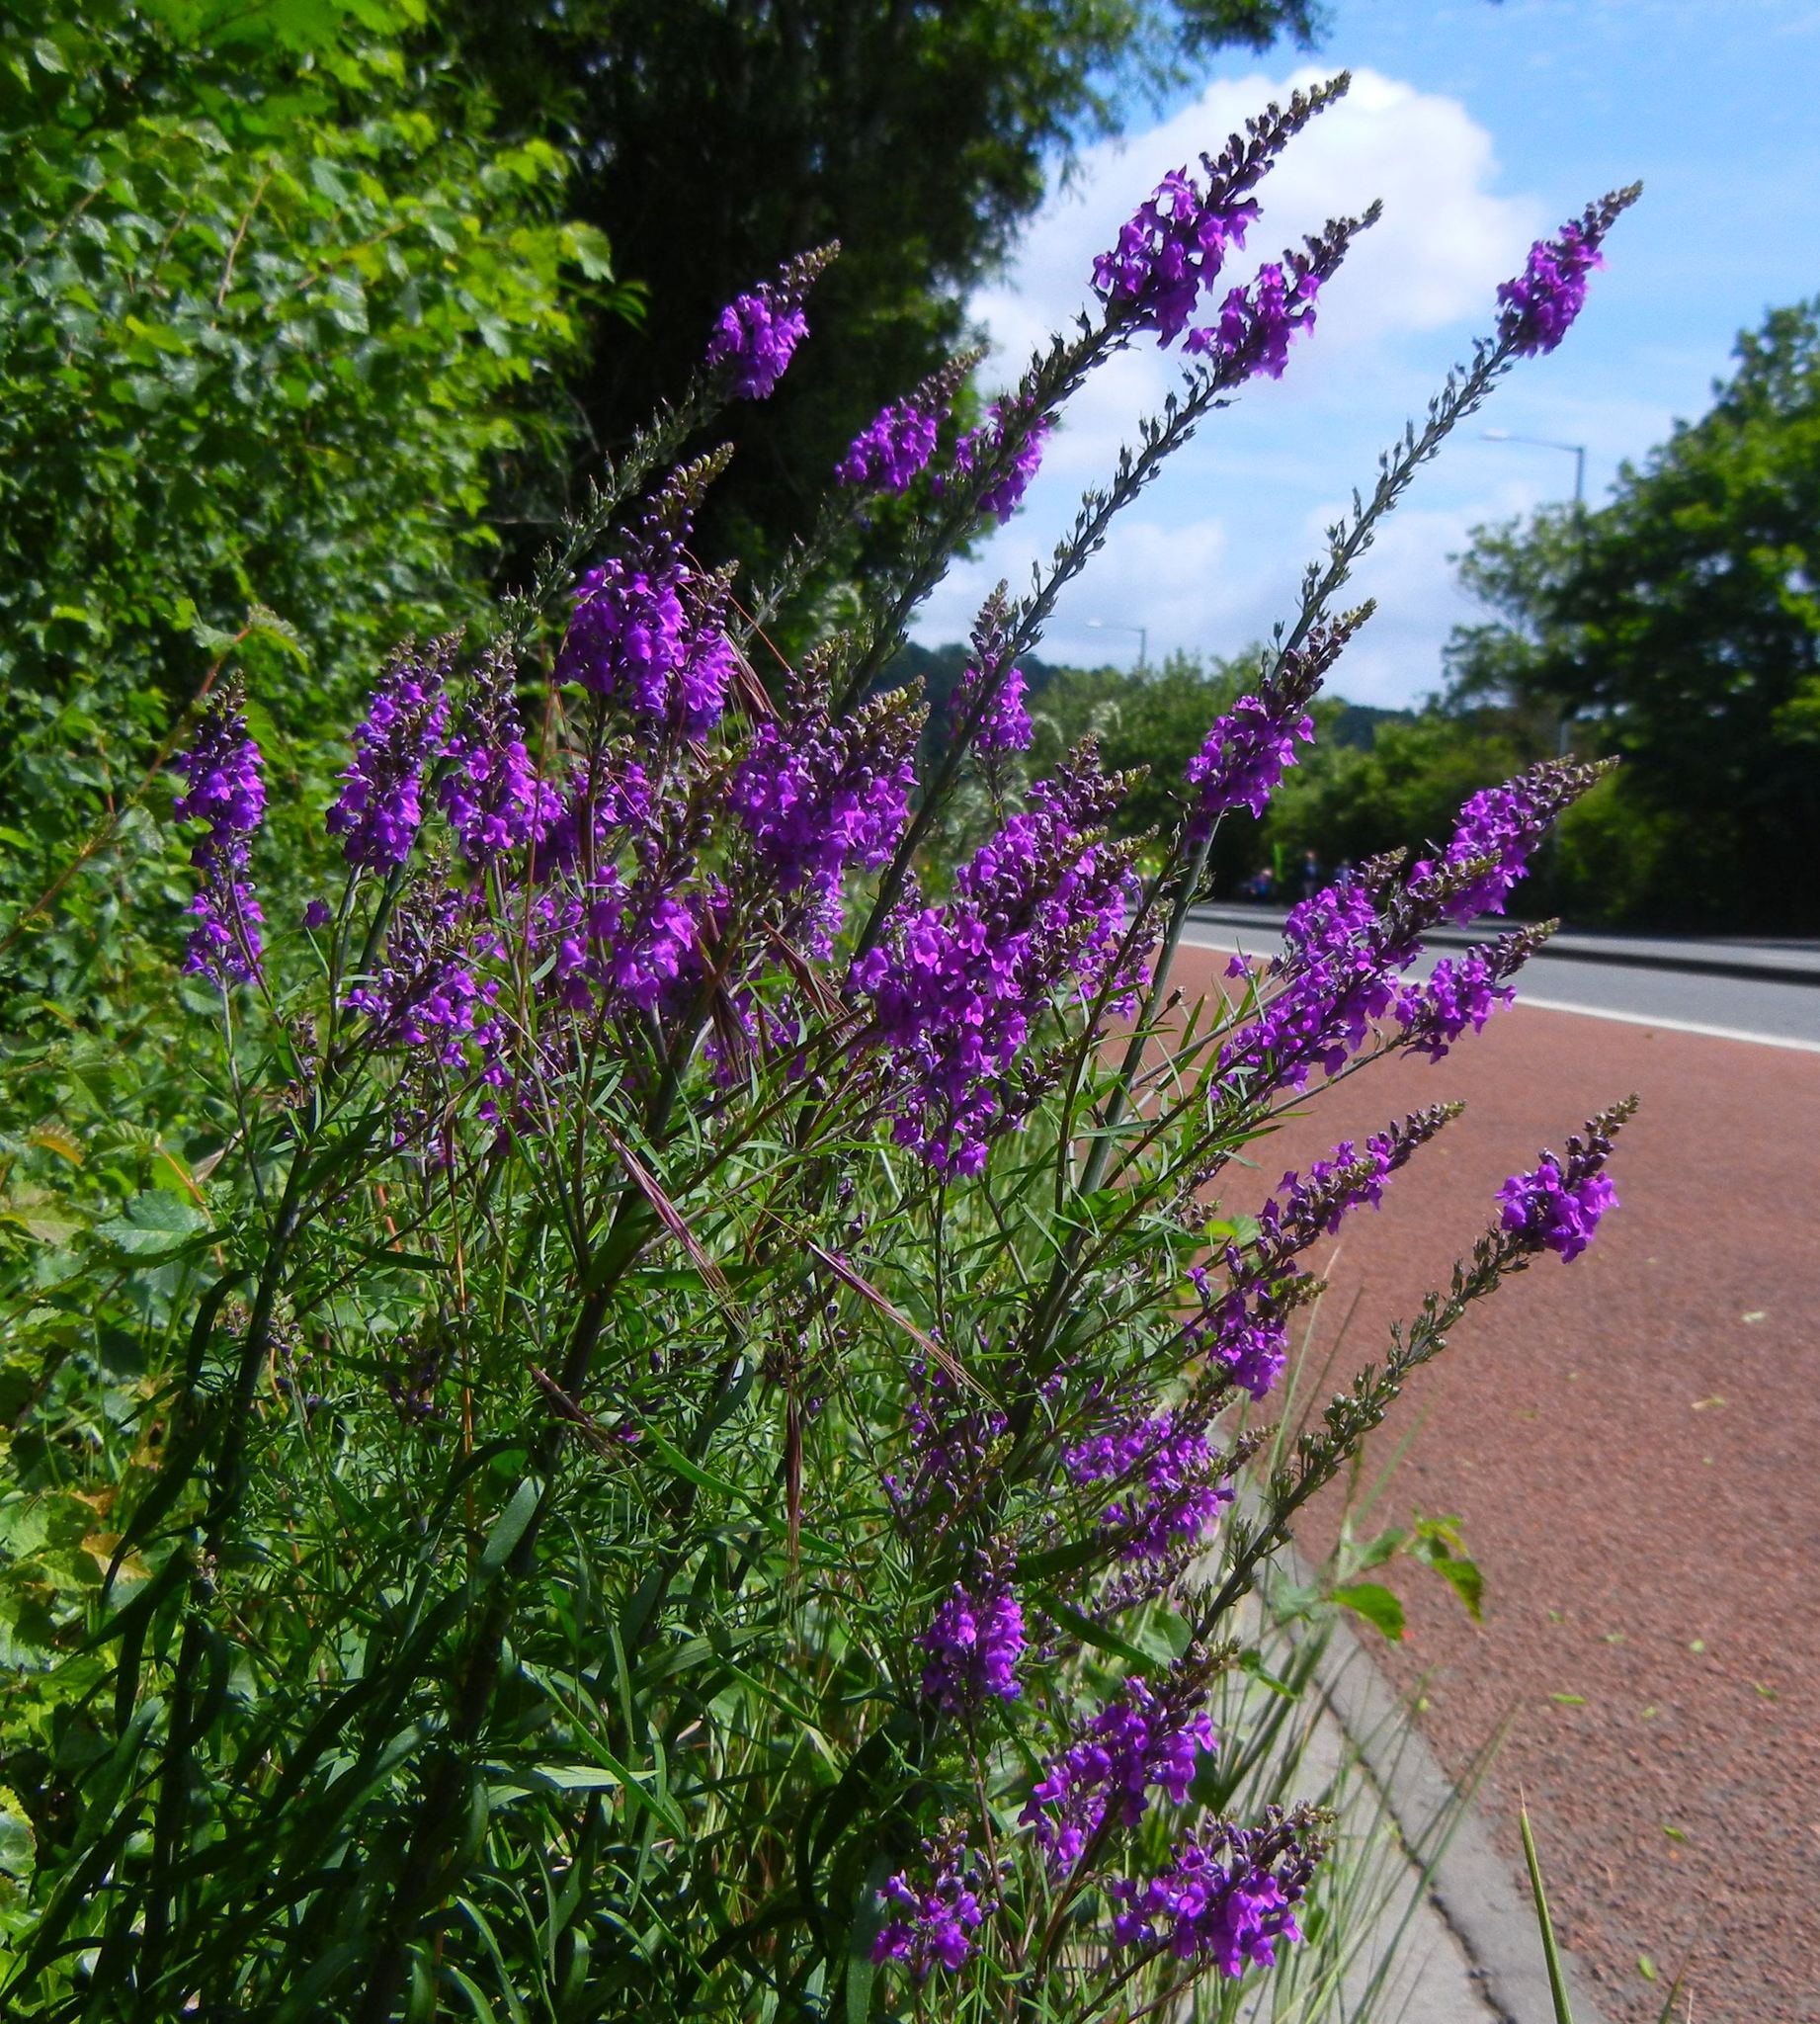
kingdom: Plantae
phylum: Tracheophyta
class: Magnoliopsida
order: Lamiales
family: Plantaginaceae
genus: Linaria
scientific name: Linaria purpurea
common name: Purple toadflax
